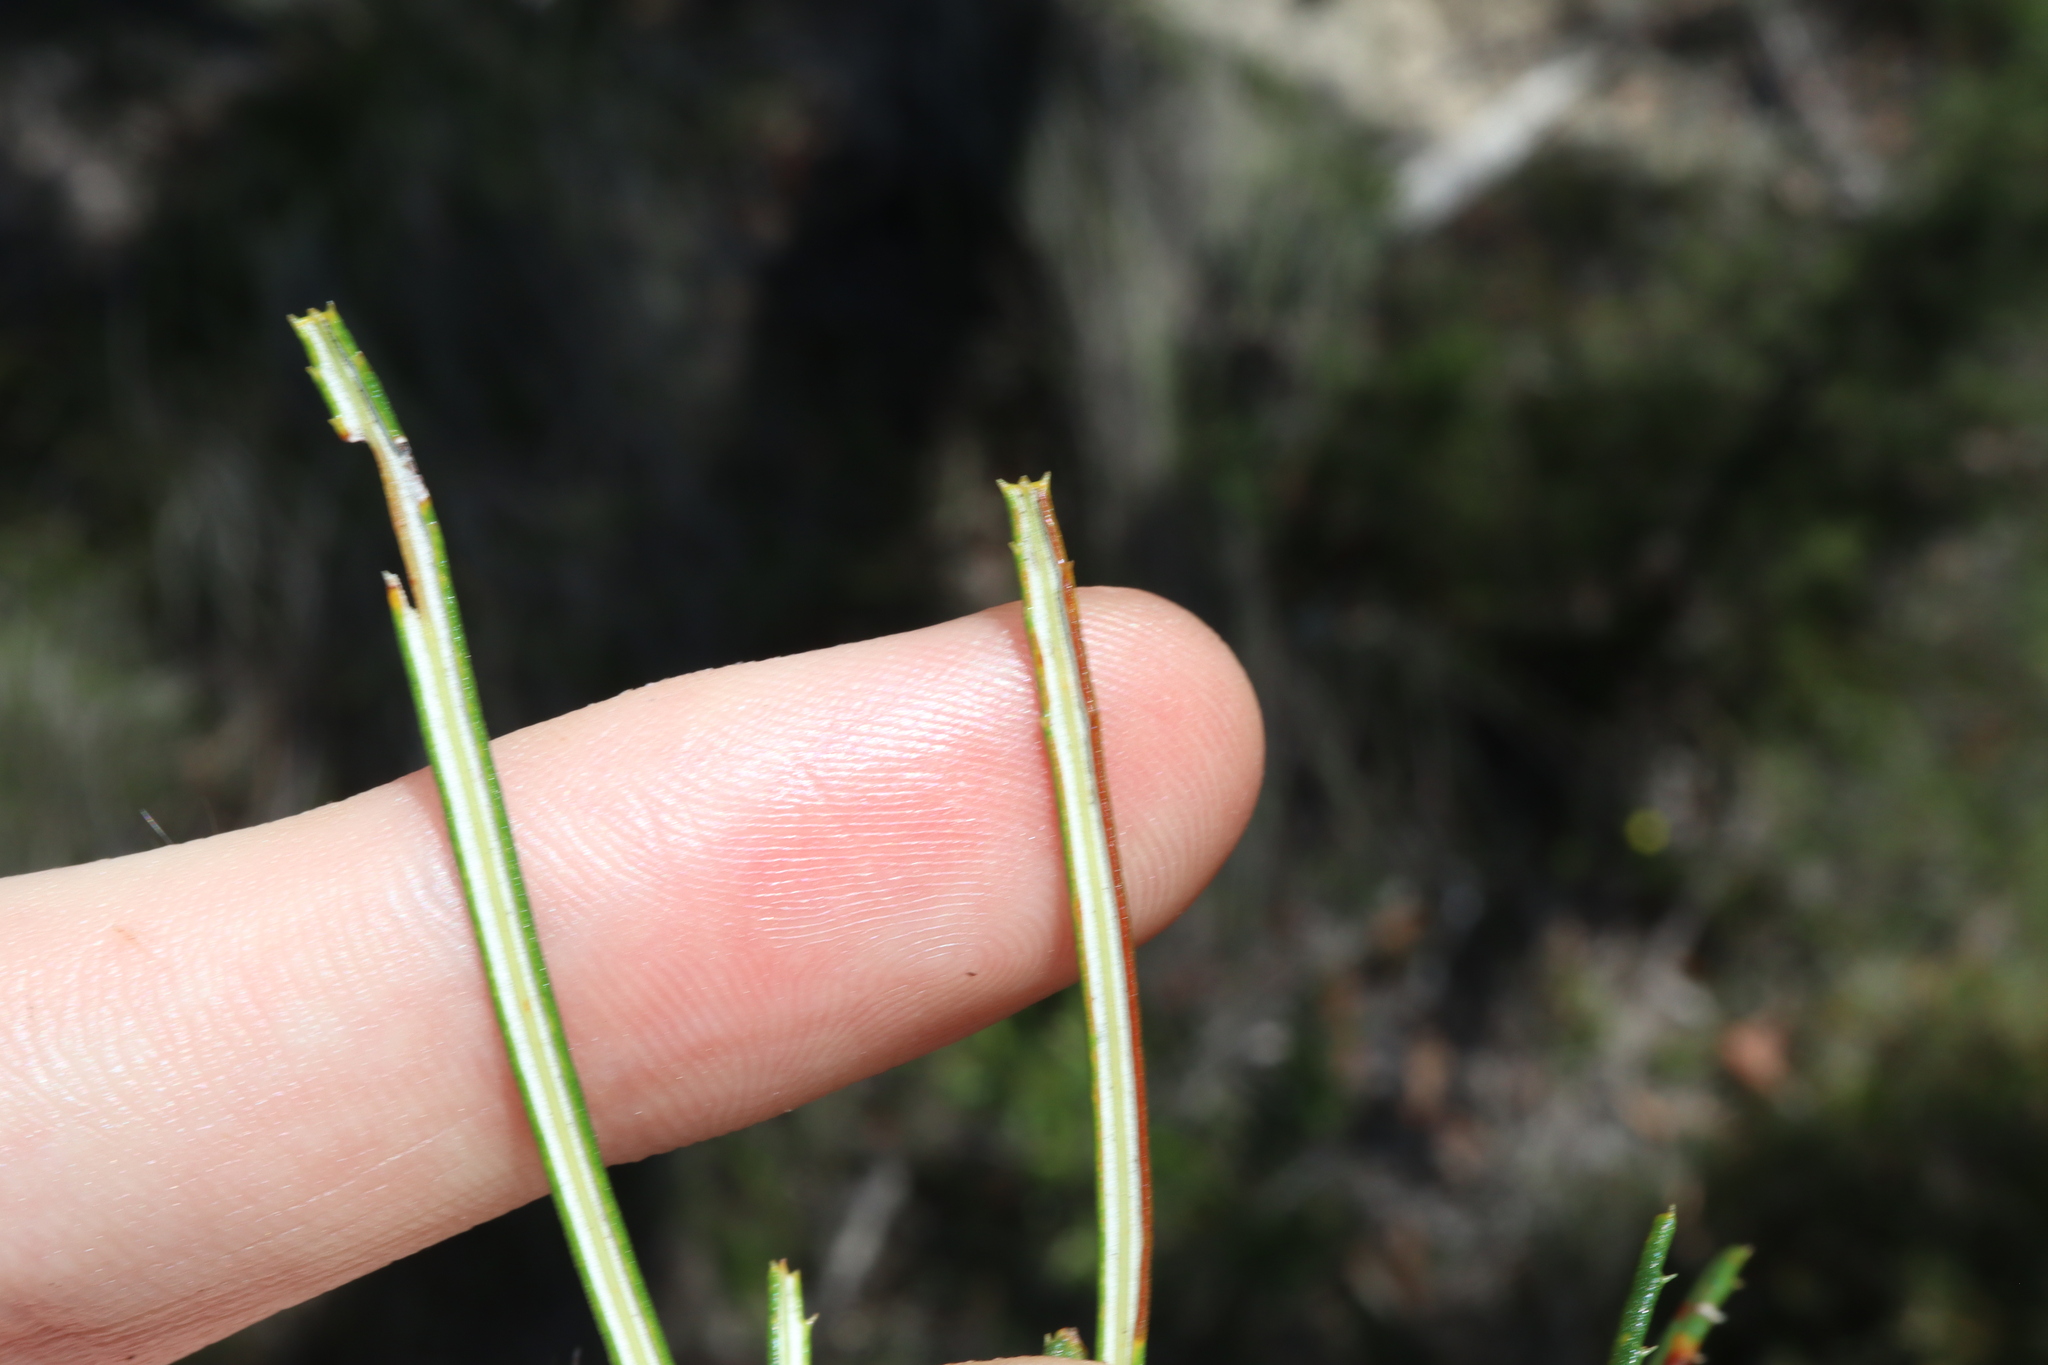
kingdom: Plantae
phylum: Tracheophyta
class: Magnoliopsida
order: Proteales
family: Proteaceae
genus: Banksia
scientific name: Banksia spinulosa
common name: Hairpin banksia
